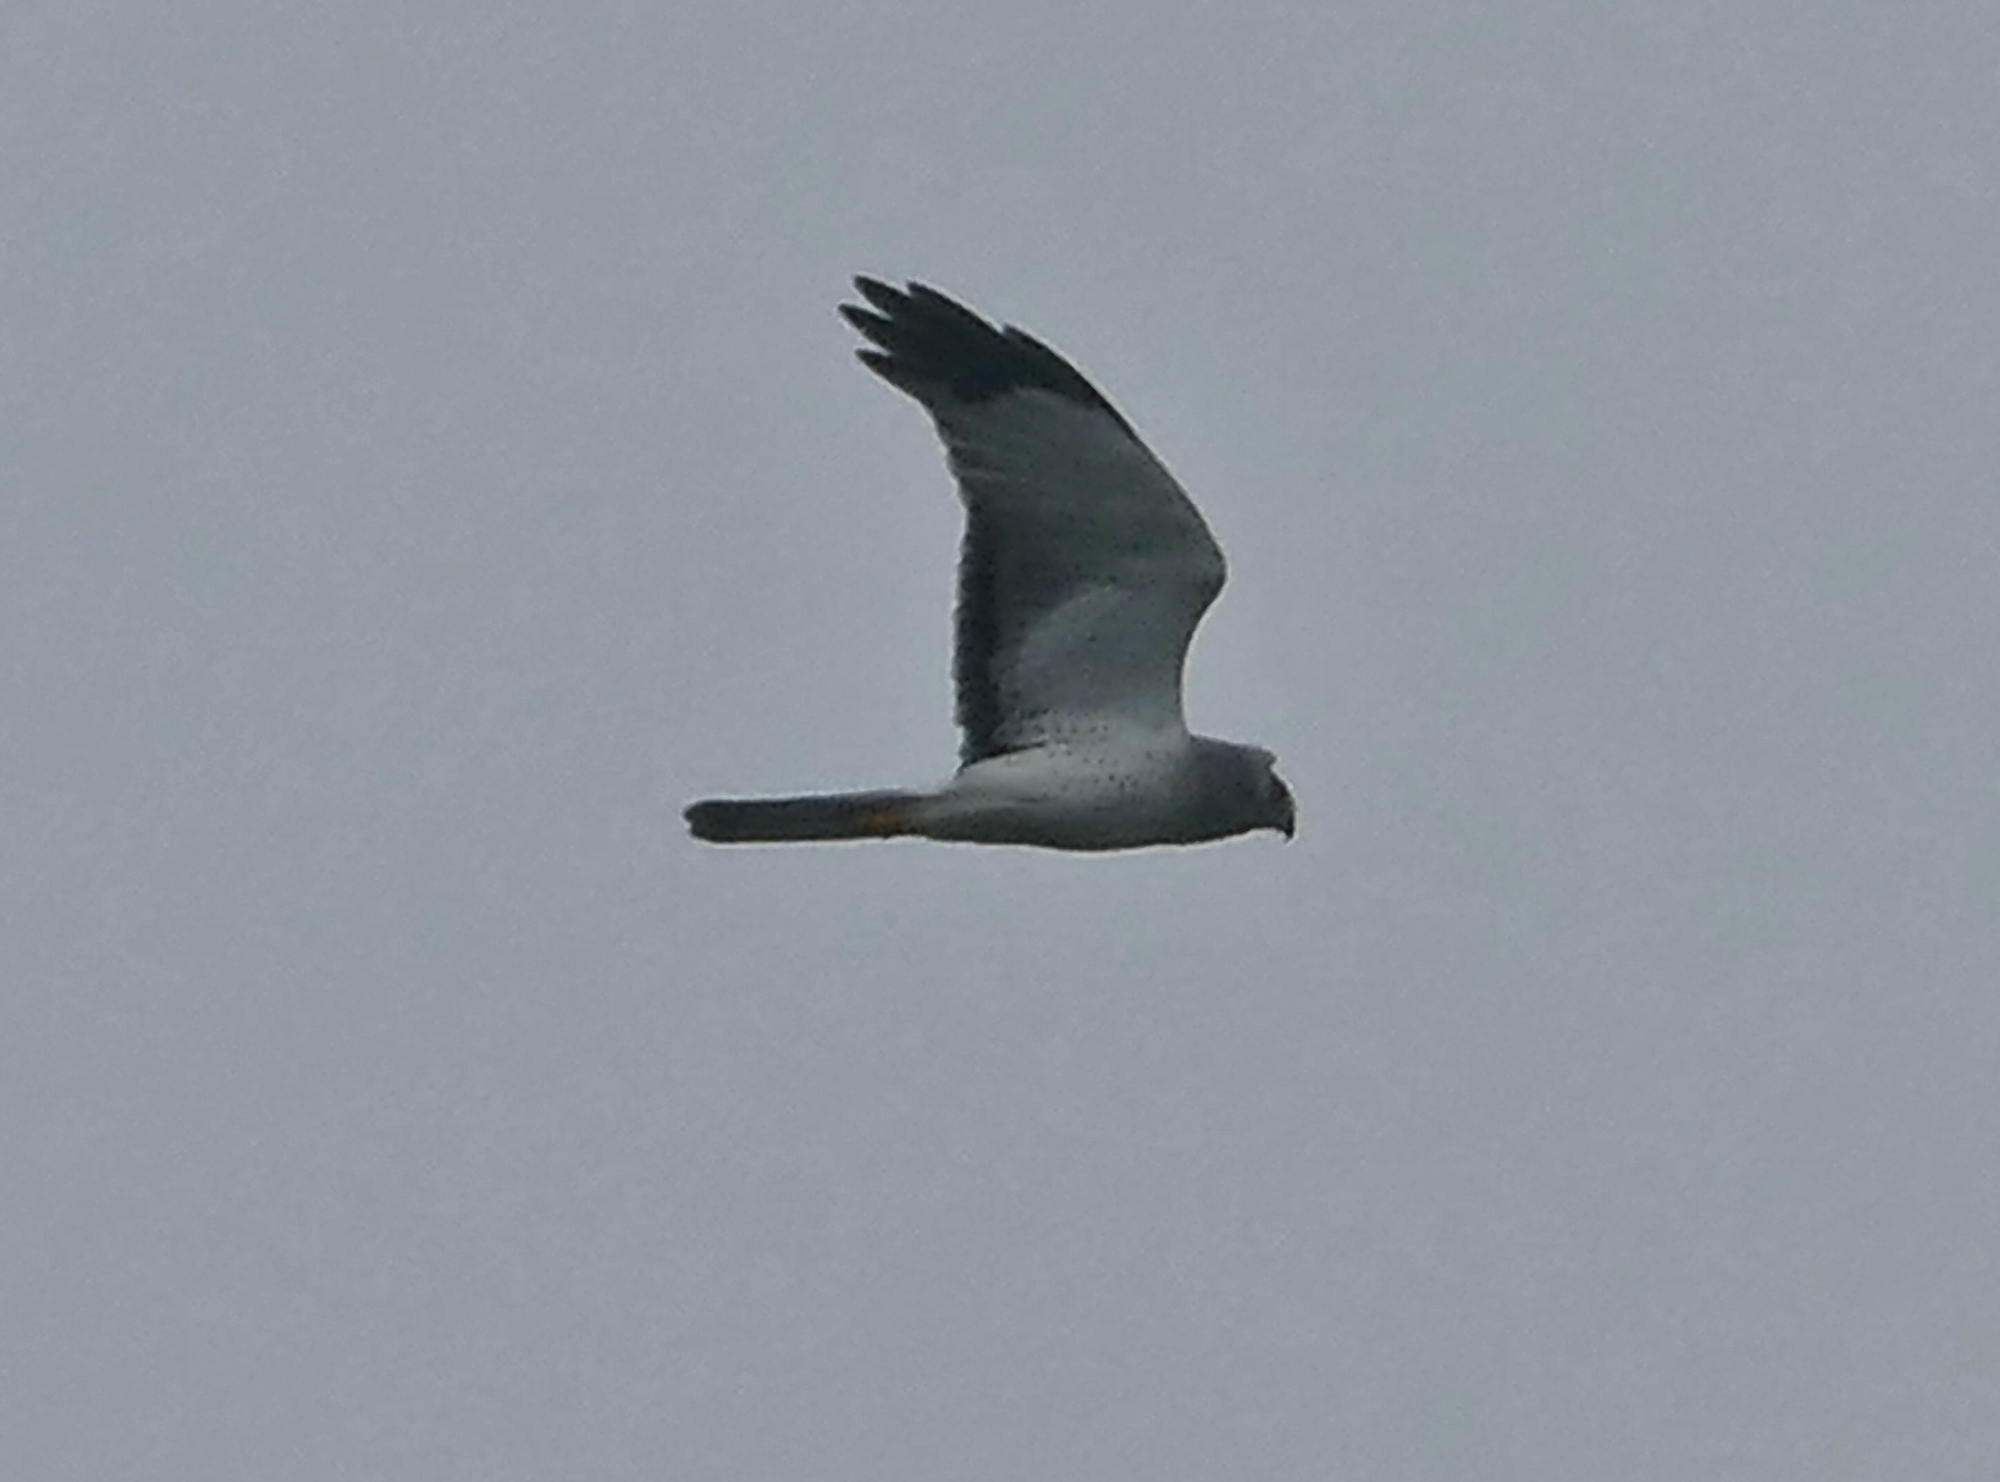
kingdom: Animalia
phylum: Chordata
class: Aves
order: Accipitriformes
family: Accipitridae
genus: Circus
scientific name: Circus cyaneus
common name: Hen harrier
